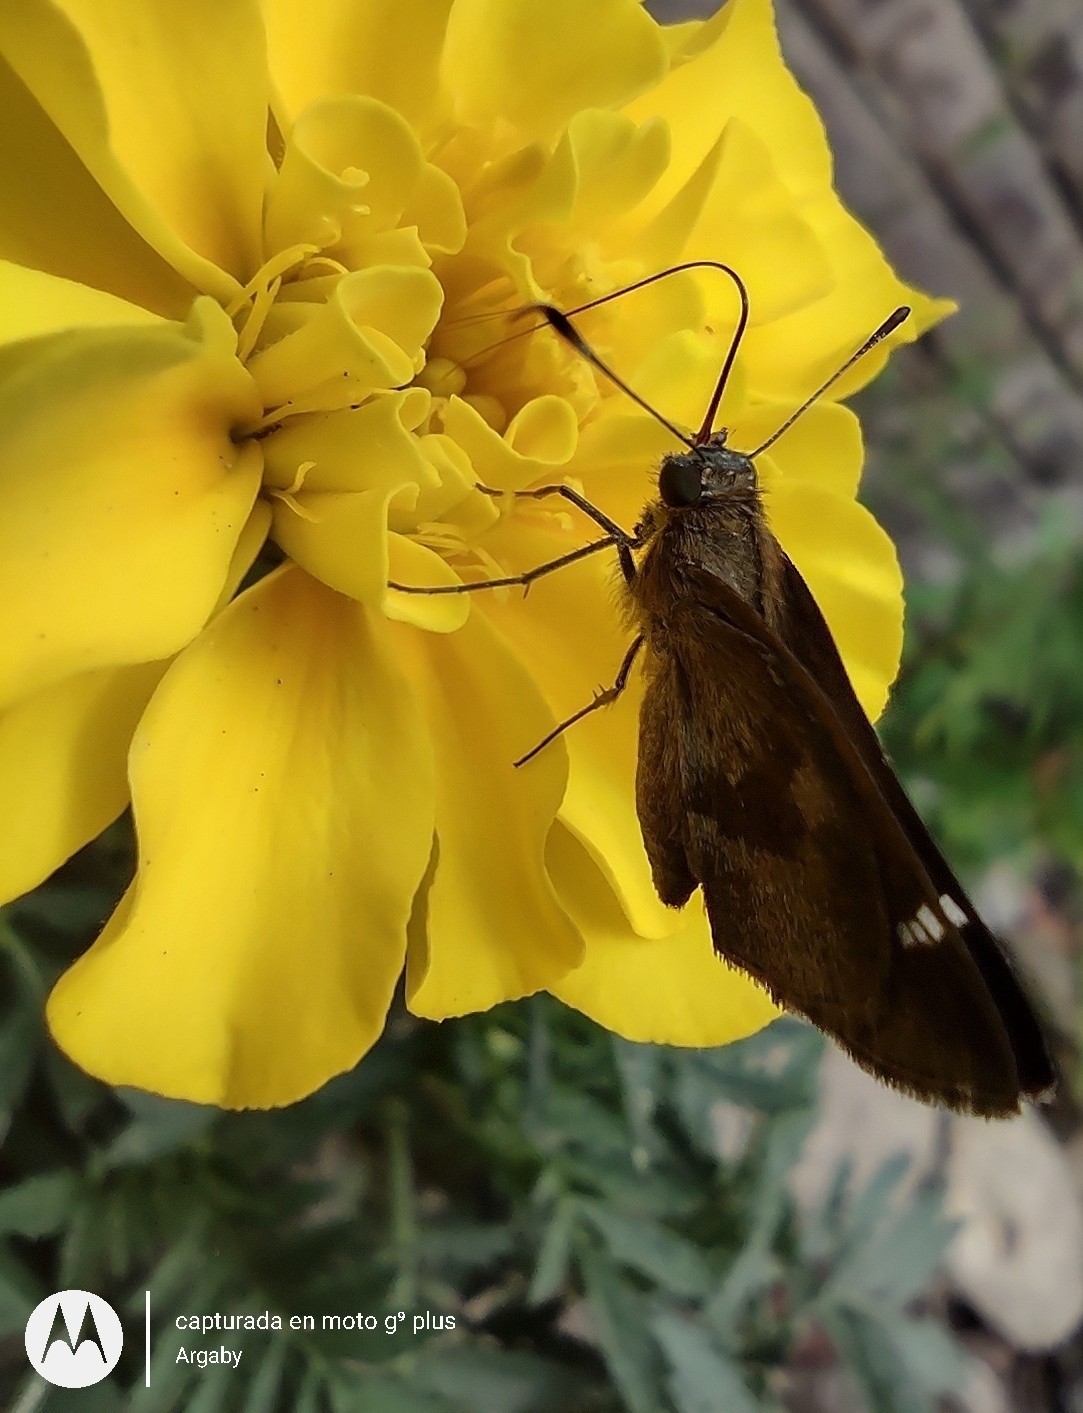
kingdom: Animalia
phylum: Arthropoda
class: Insecta
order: Lepidoptera
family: Hesperiidae
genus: Cymaenes
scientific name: Cymaenes
